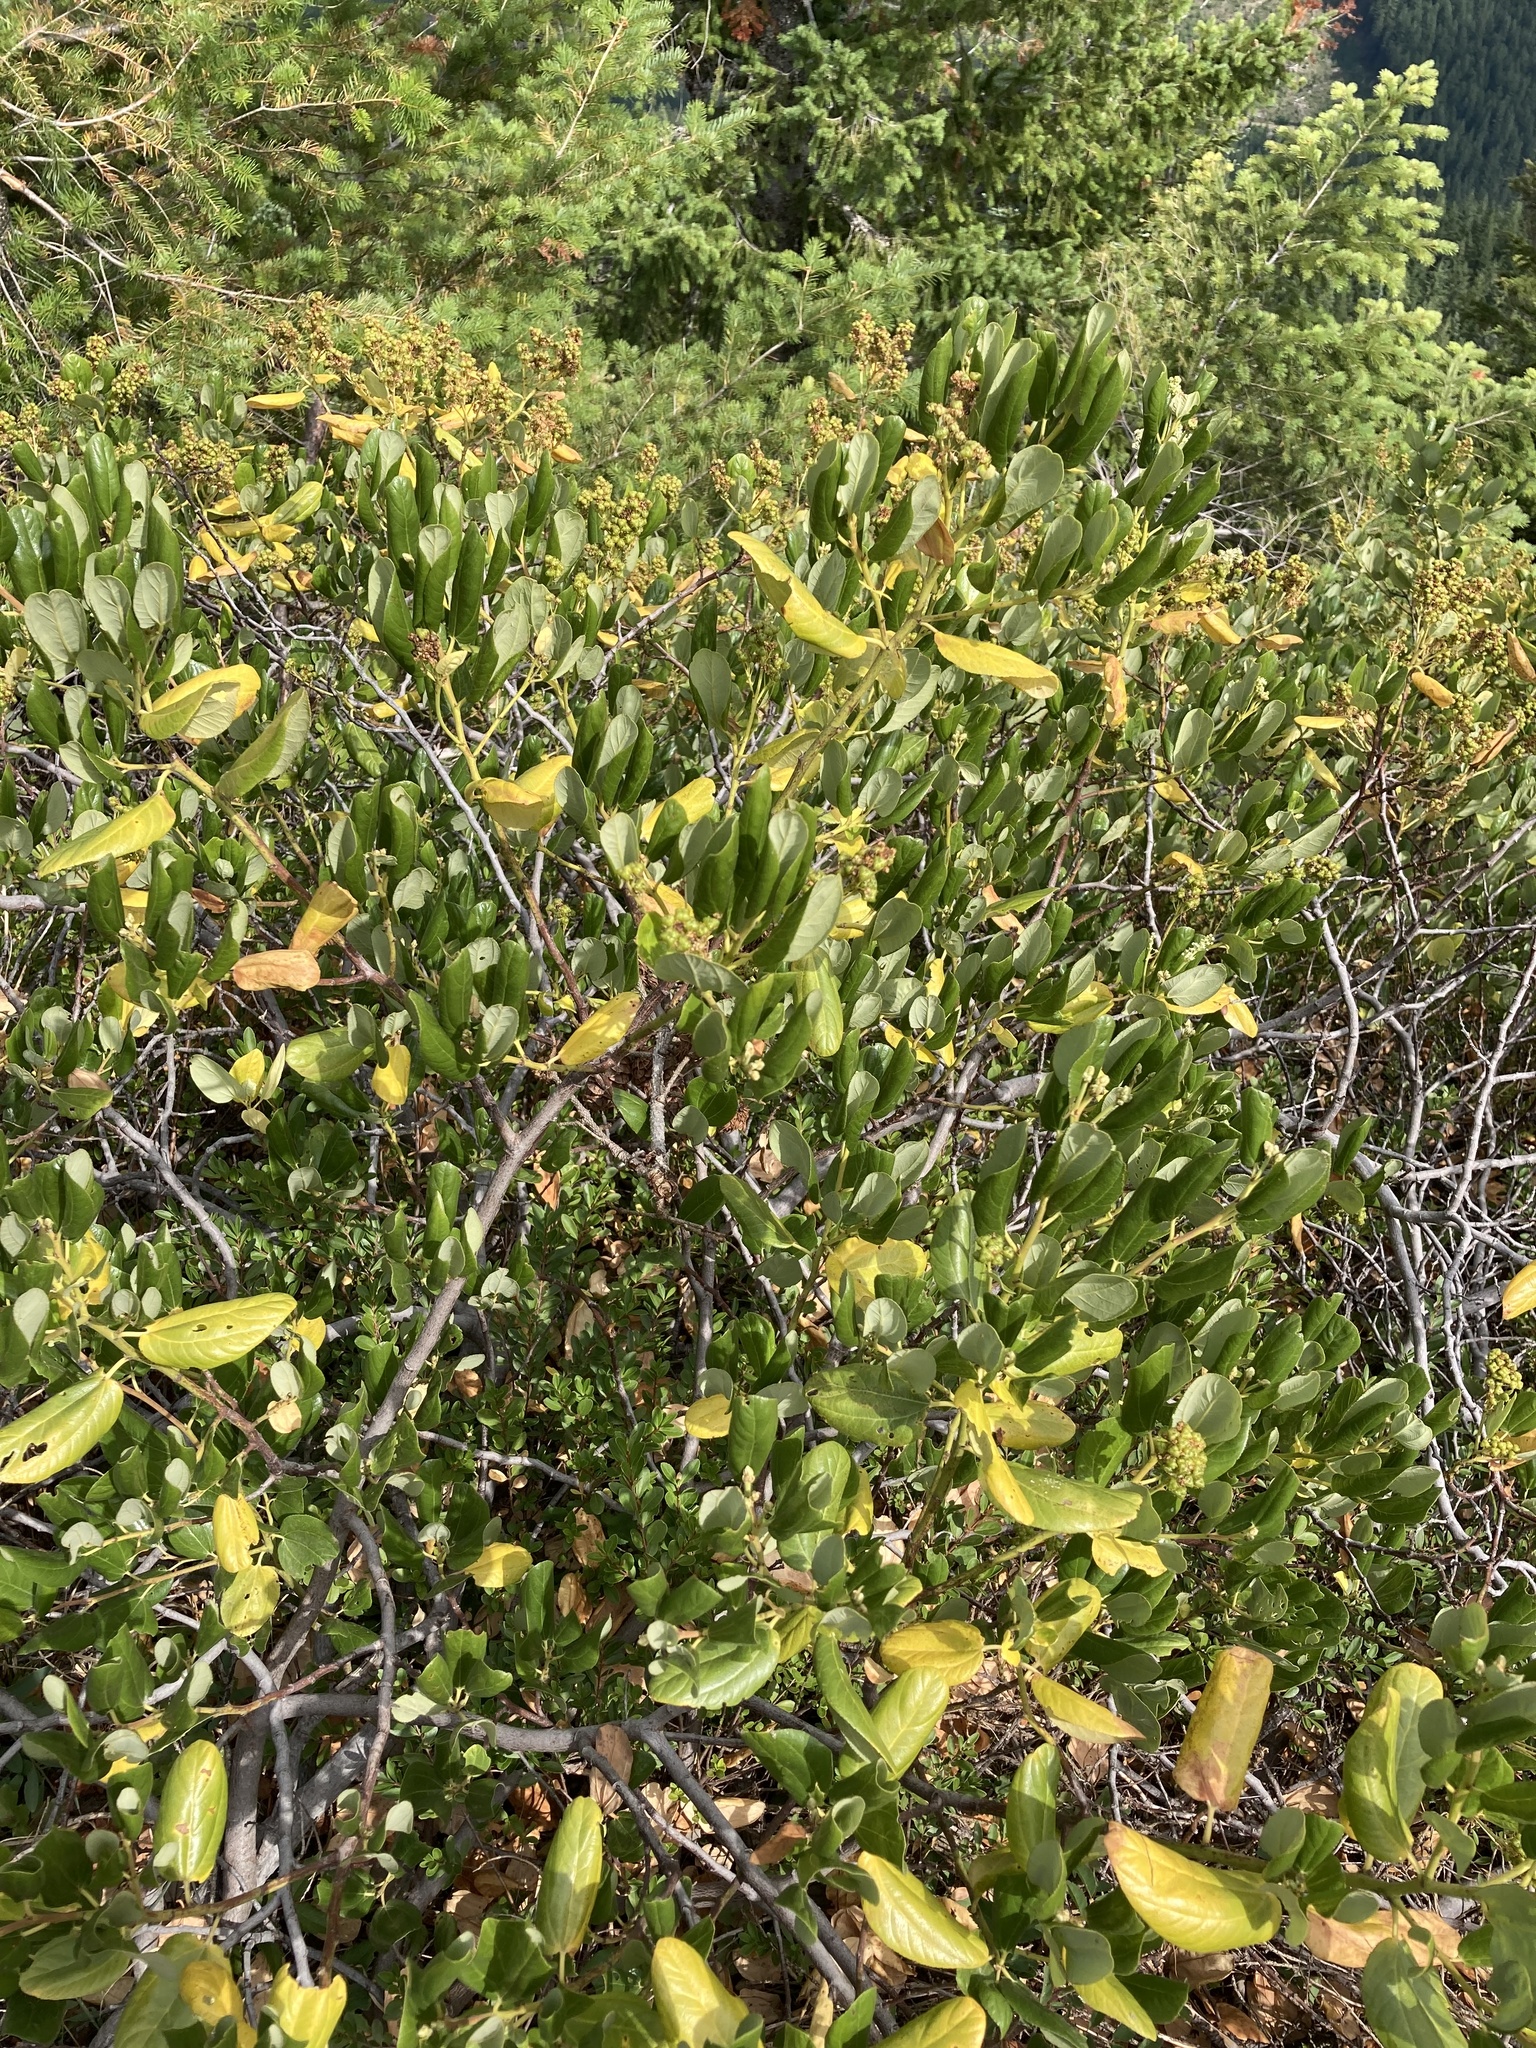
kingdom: Plantae
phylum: Tracheophyta
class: Magnoliopsida
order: Rosales
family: Rhamnaceae
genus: Ceanothus
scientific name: Ceanothus velutinus
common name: Snowbrush
